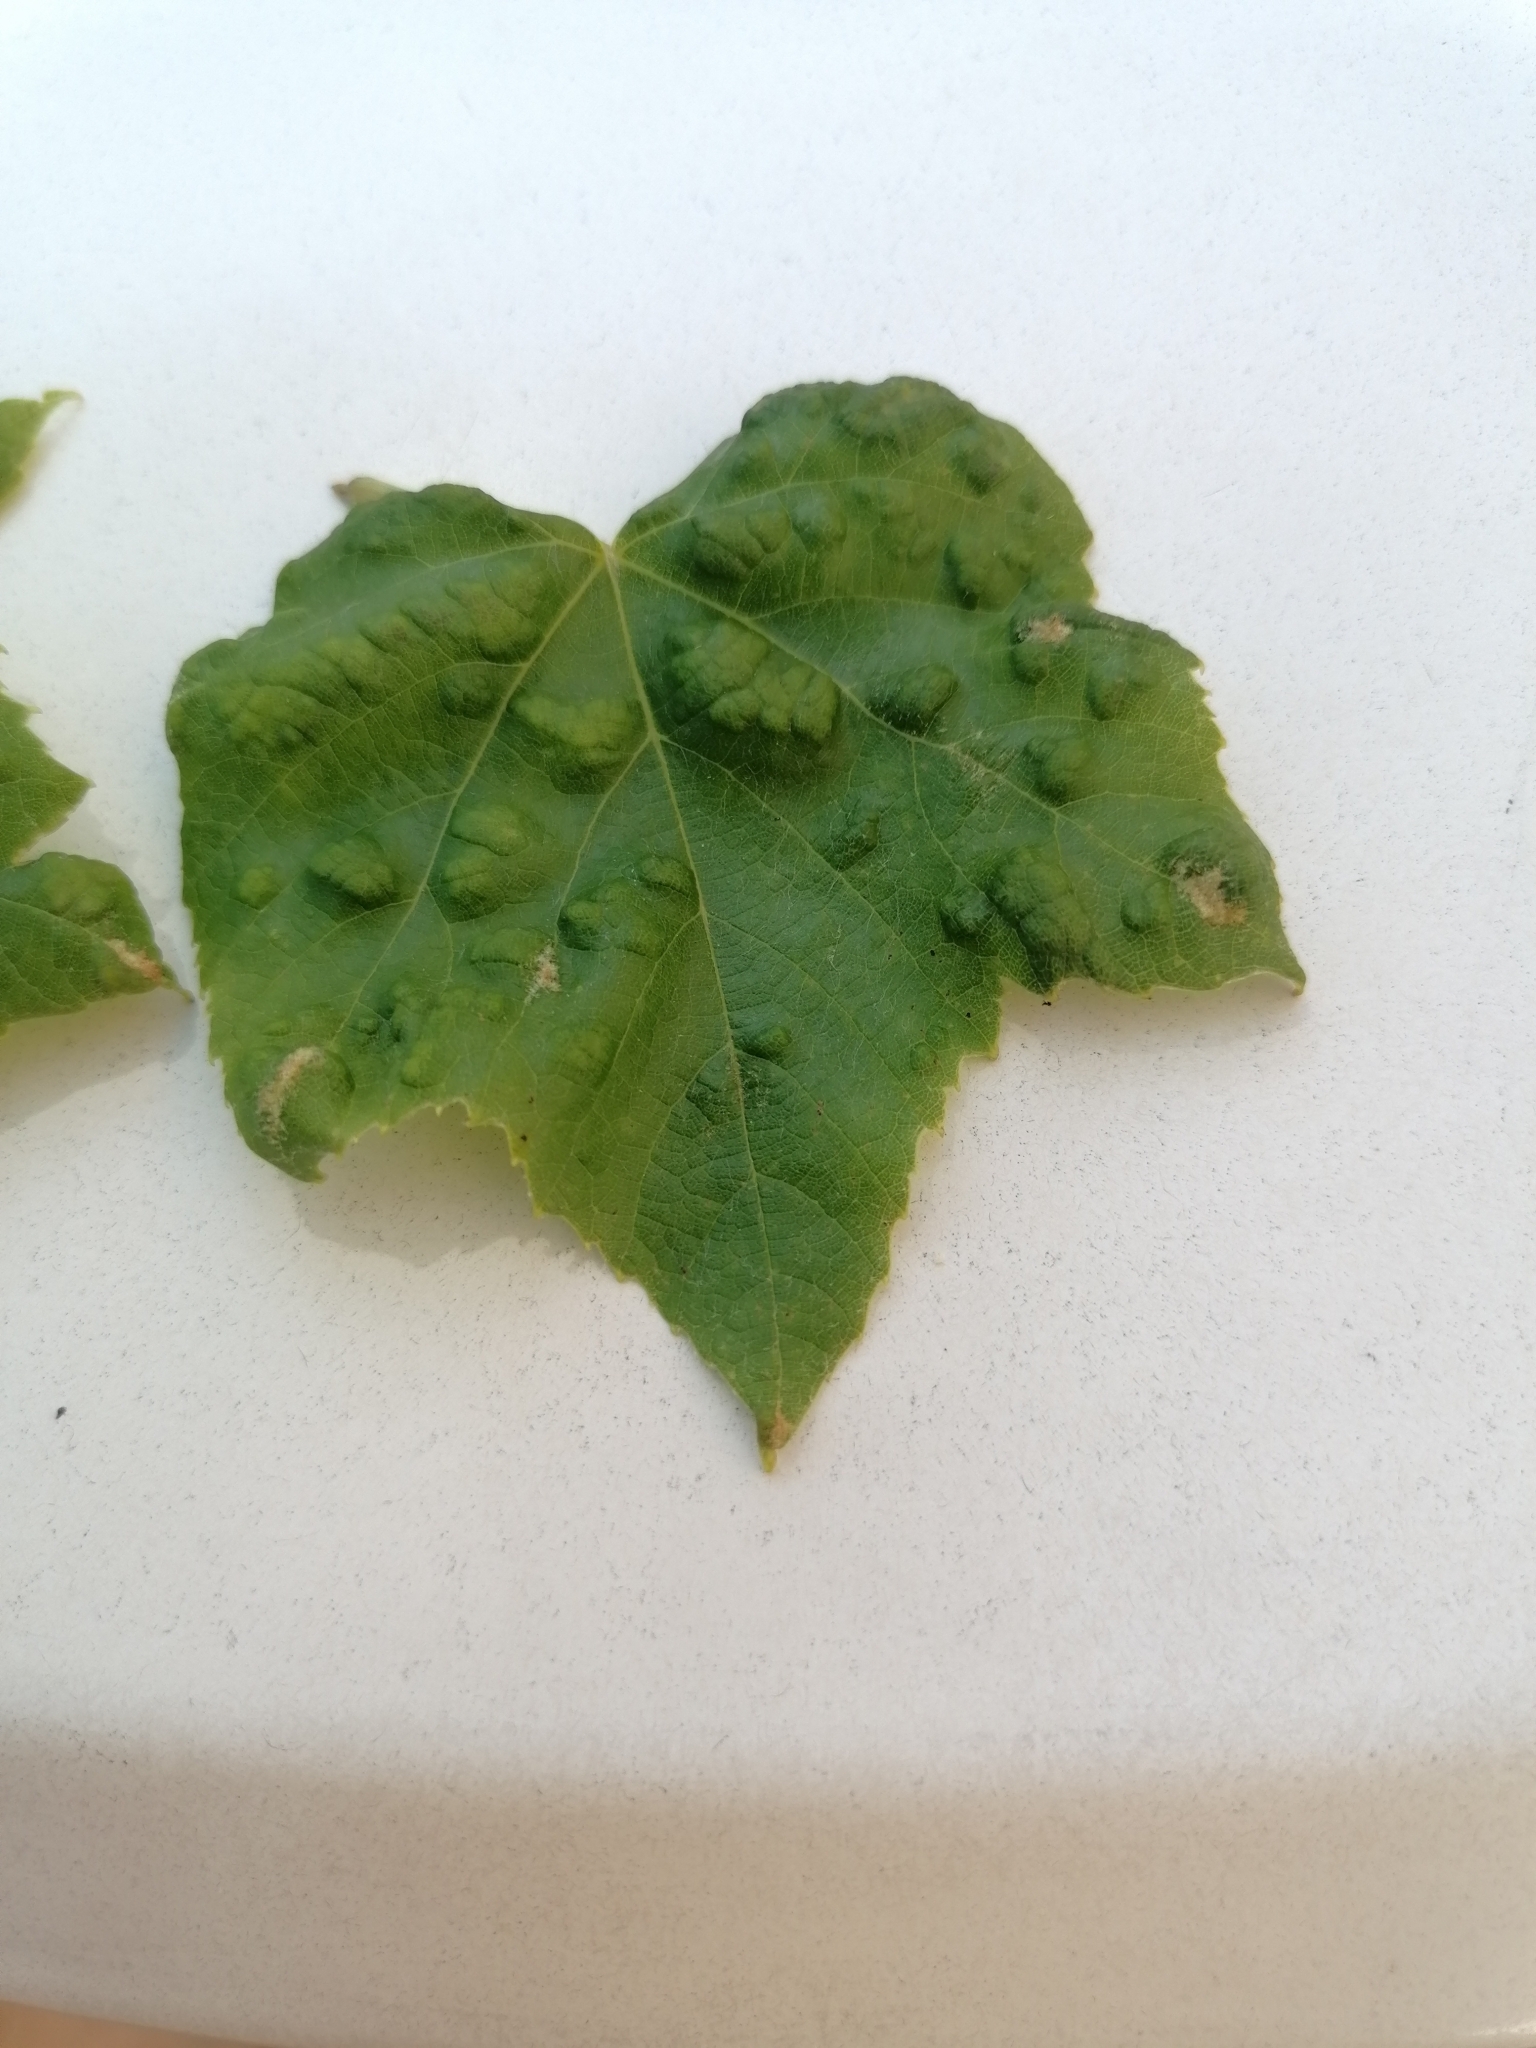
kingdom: Animalia
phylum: Arthropoda
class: Arachnida
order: Trombidiformes
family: Eriophyidae
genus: Colomerus
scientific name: Colomerus vitis
